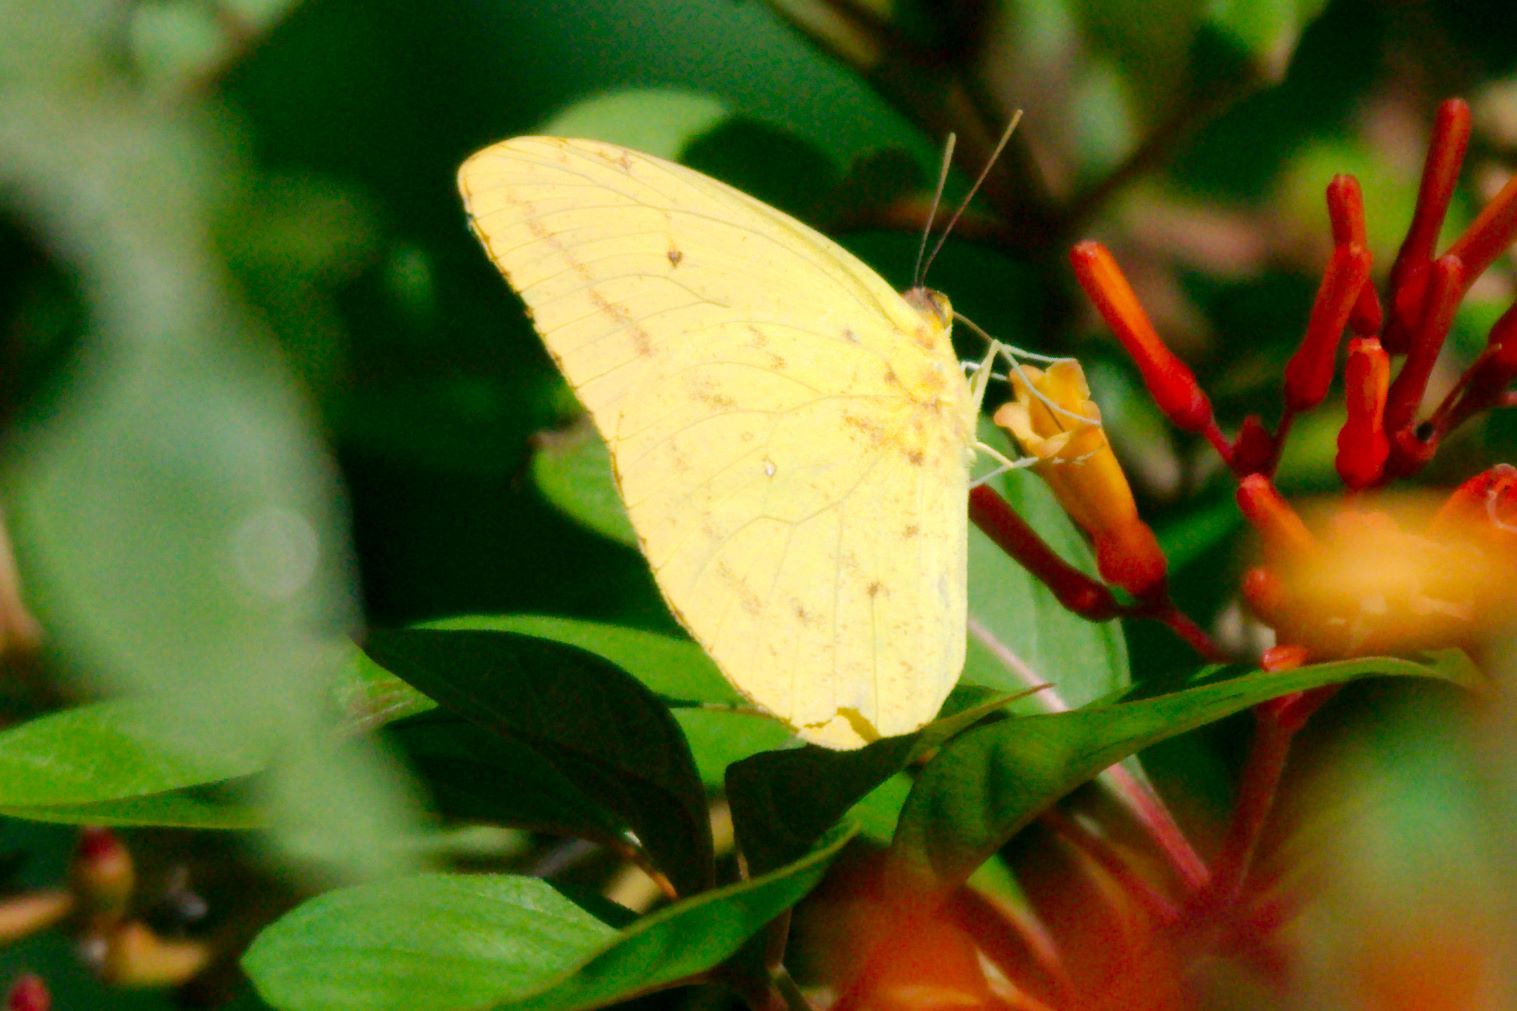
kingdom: Animalia
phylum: Arthropoda
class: Insecta
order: Lepidoptera
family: Pieridae
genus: Phoebis
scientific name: Phoebis agarithe
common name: Large orange sulphur
